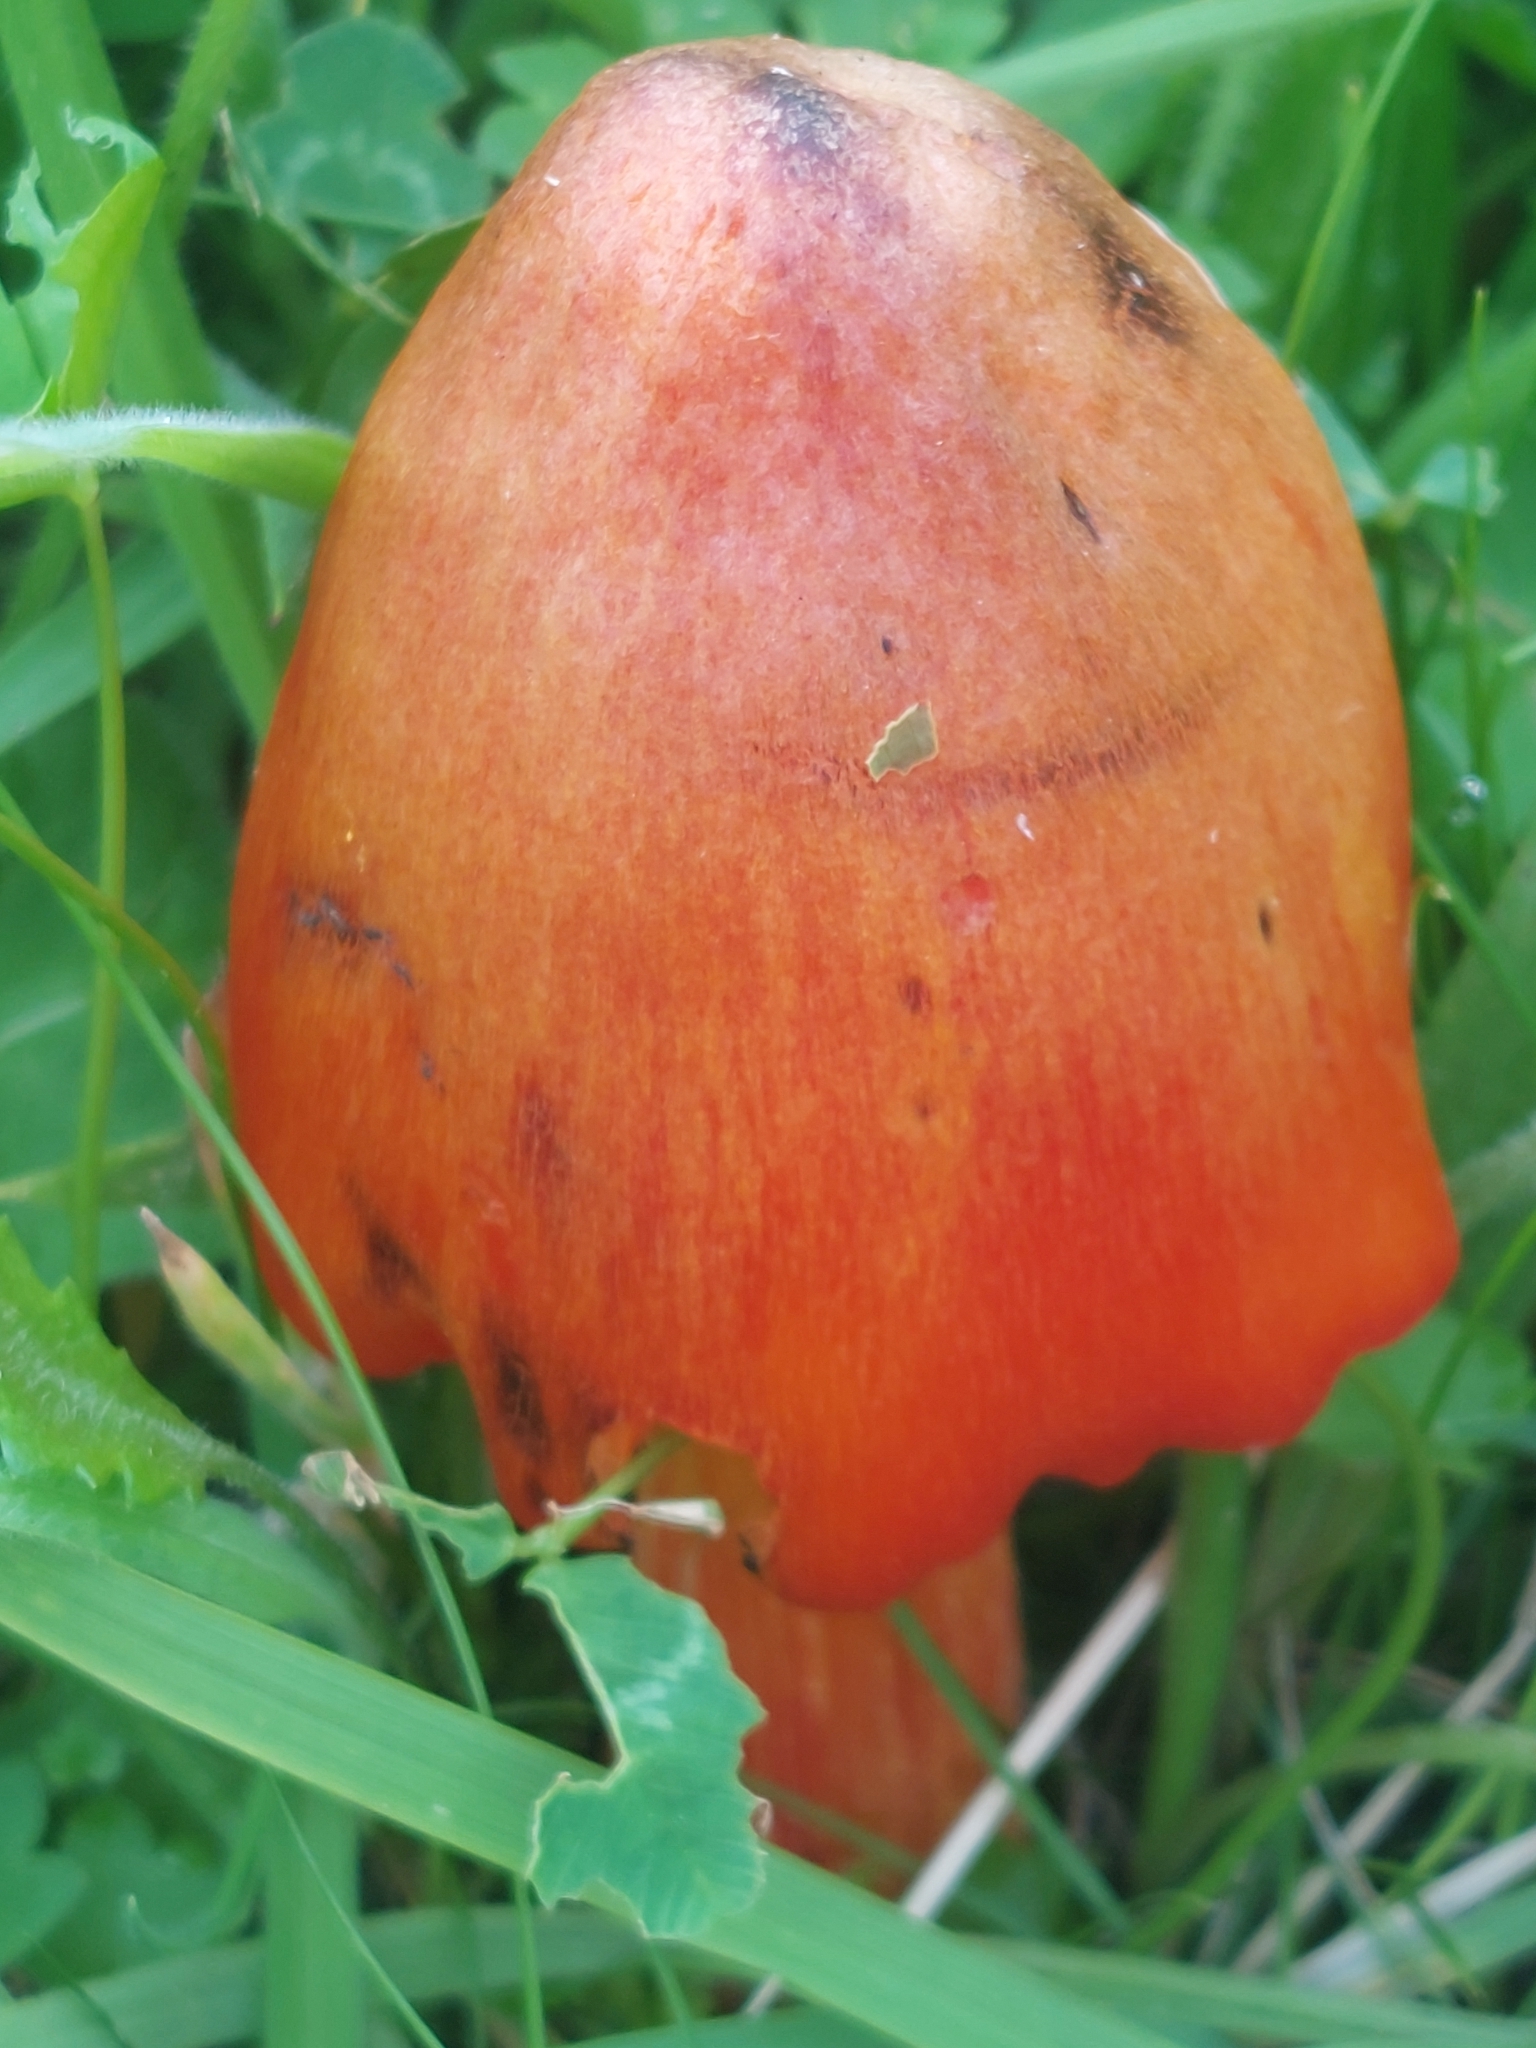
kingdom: Fungi
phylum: Basidiomycota
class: Agaricomycetes
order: Agaricales
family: Hygrophoraceae
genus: Hygrocybe
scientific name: Hygrocybe conica
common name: Blackening wax-cap
